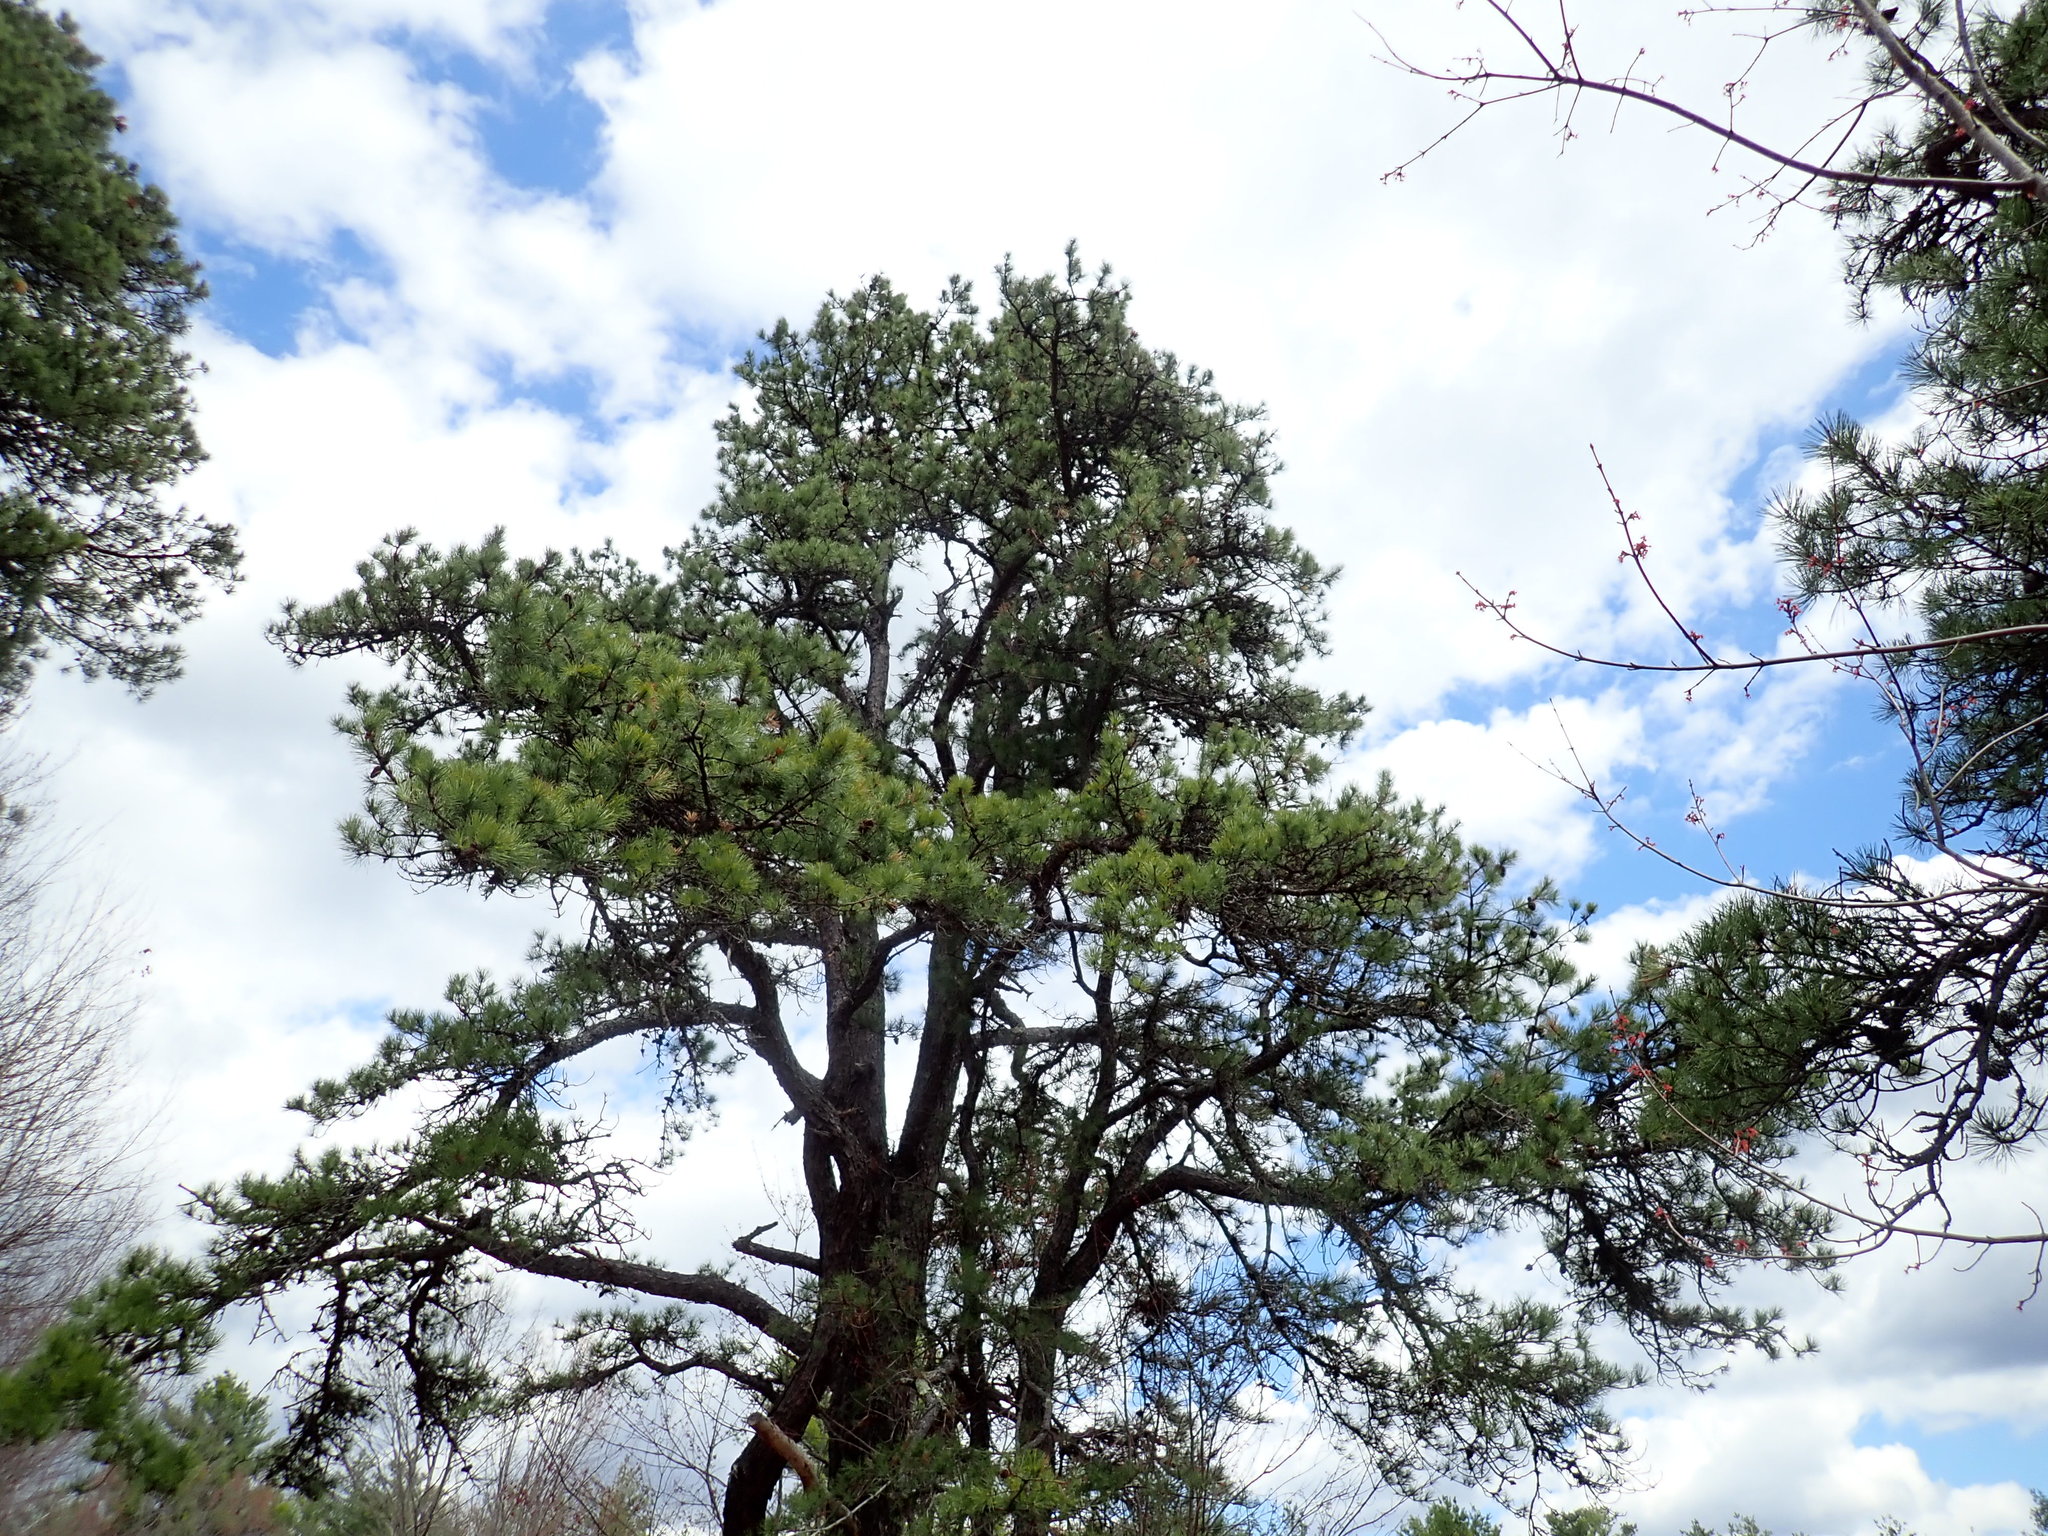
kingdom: Plantae
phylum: Tracheophyta
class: Pinopsida
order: Pinales
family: Pinaceae
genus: Pinus
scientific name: Pinus rigida
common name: Pitch pine
